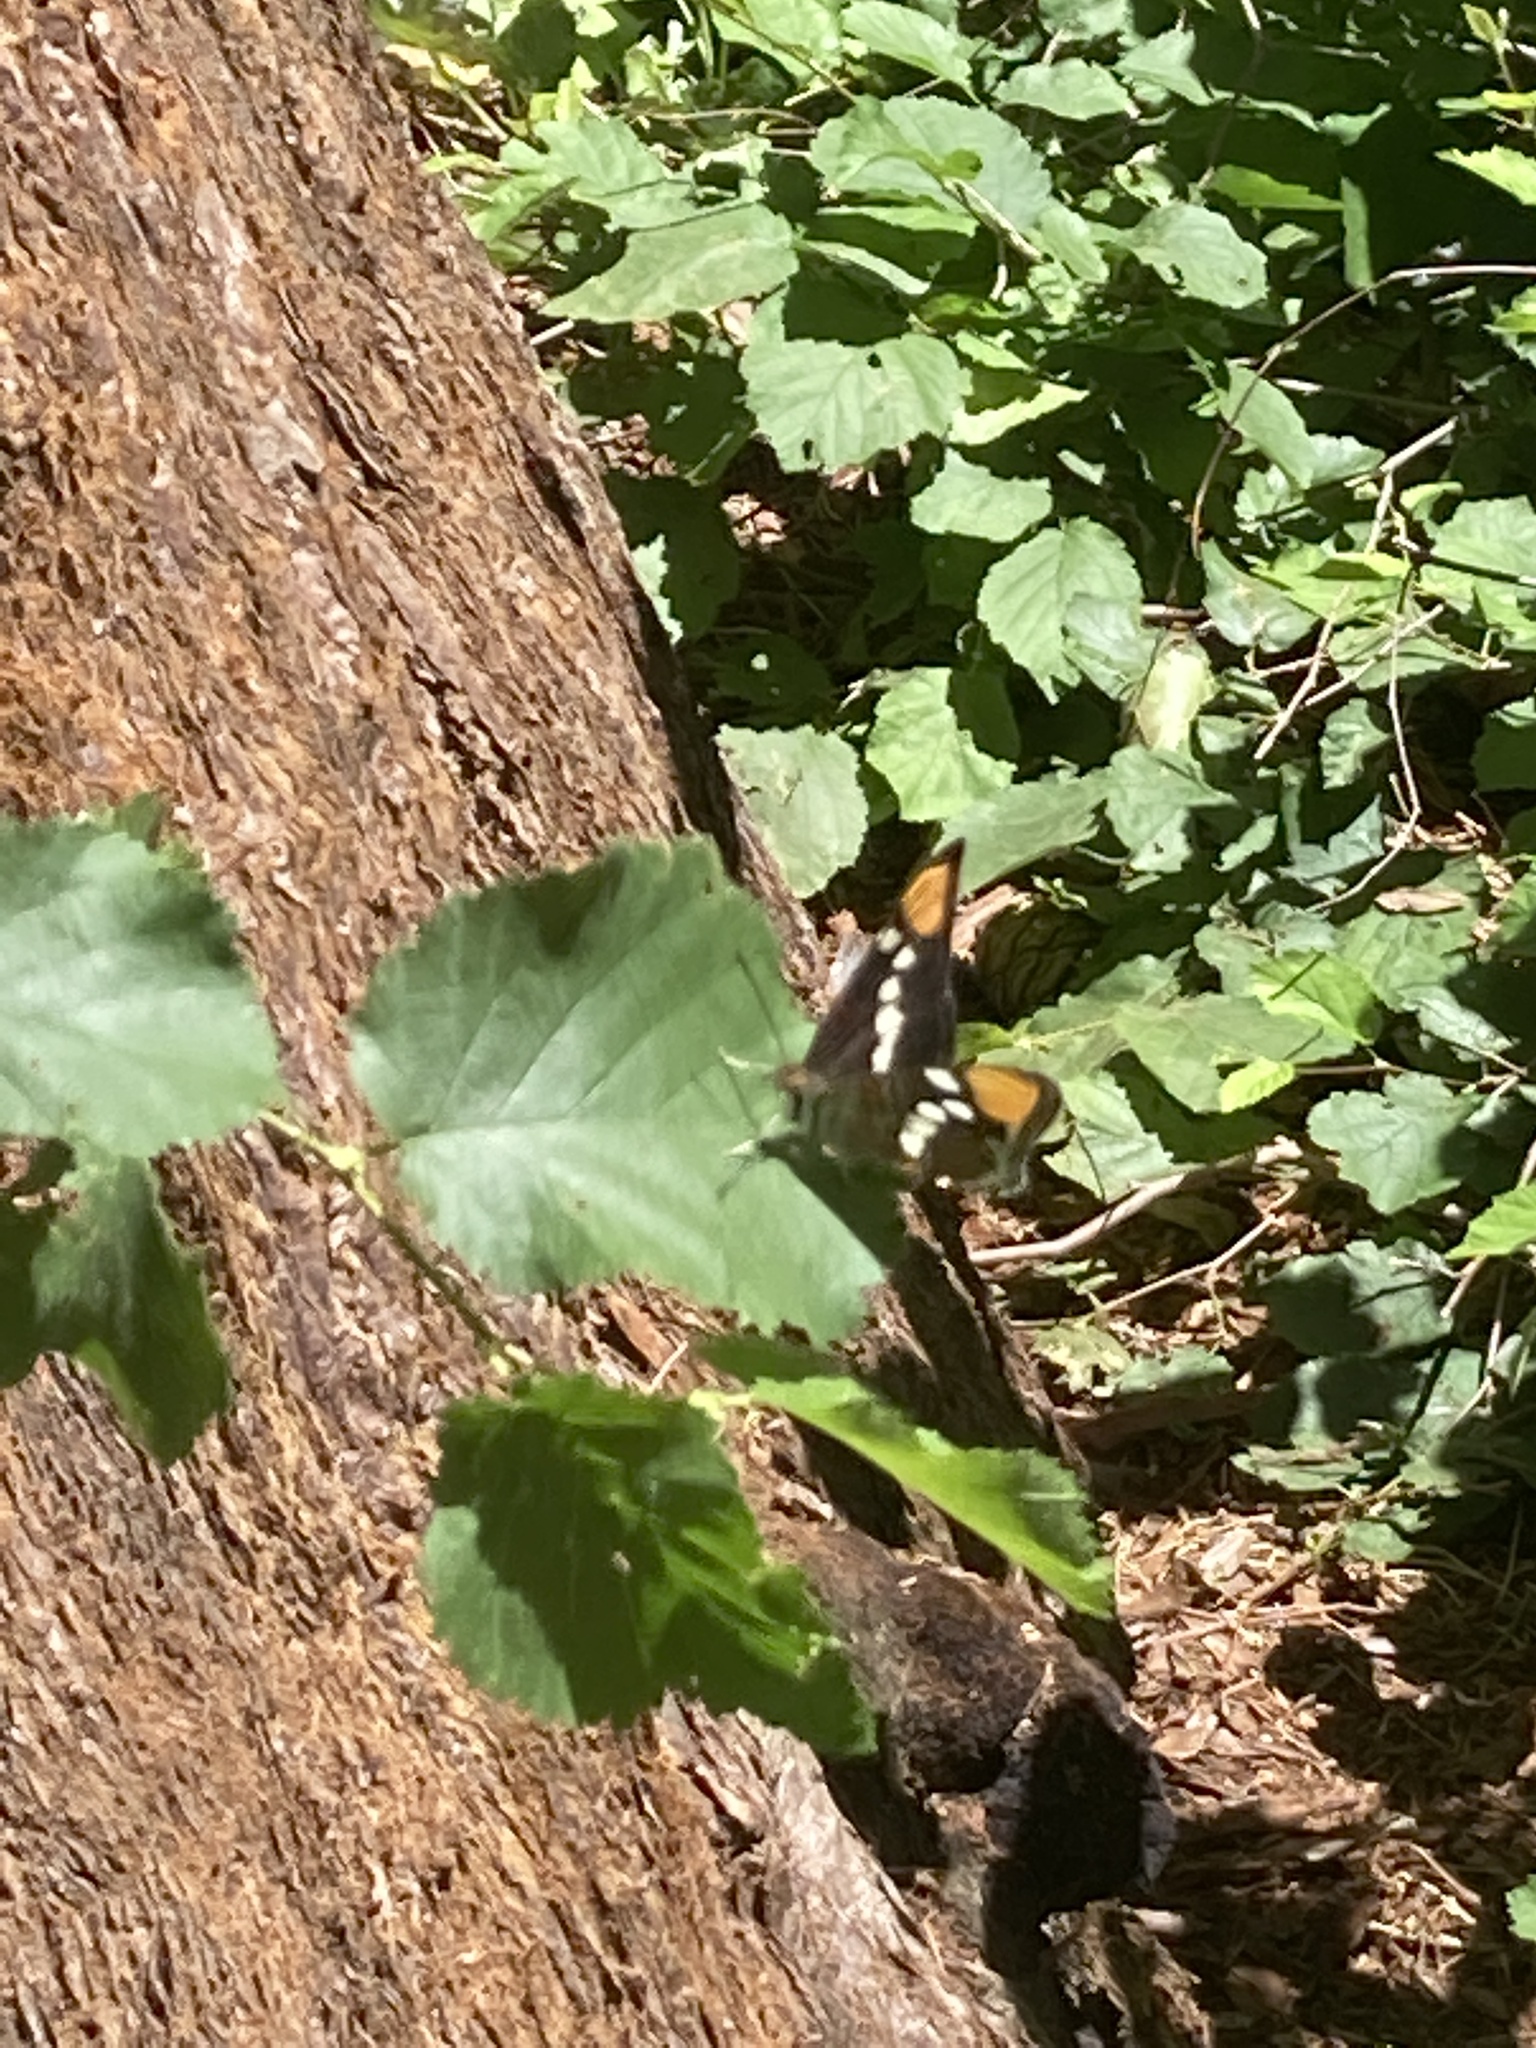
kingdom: Animalia
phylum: Arthropoda
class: Insecta
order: Lepidoptera
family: Nymphalidae
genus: Limenitis
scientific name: Limenitis bredowii
